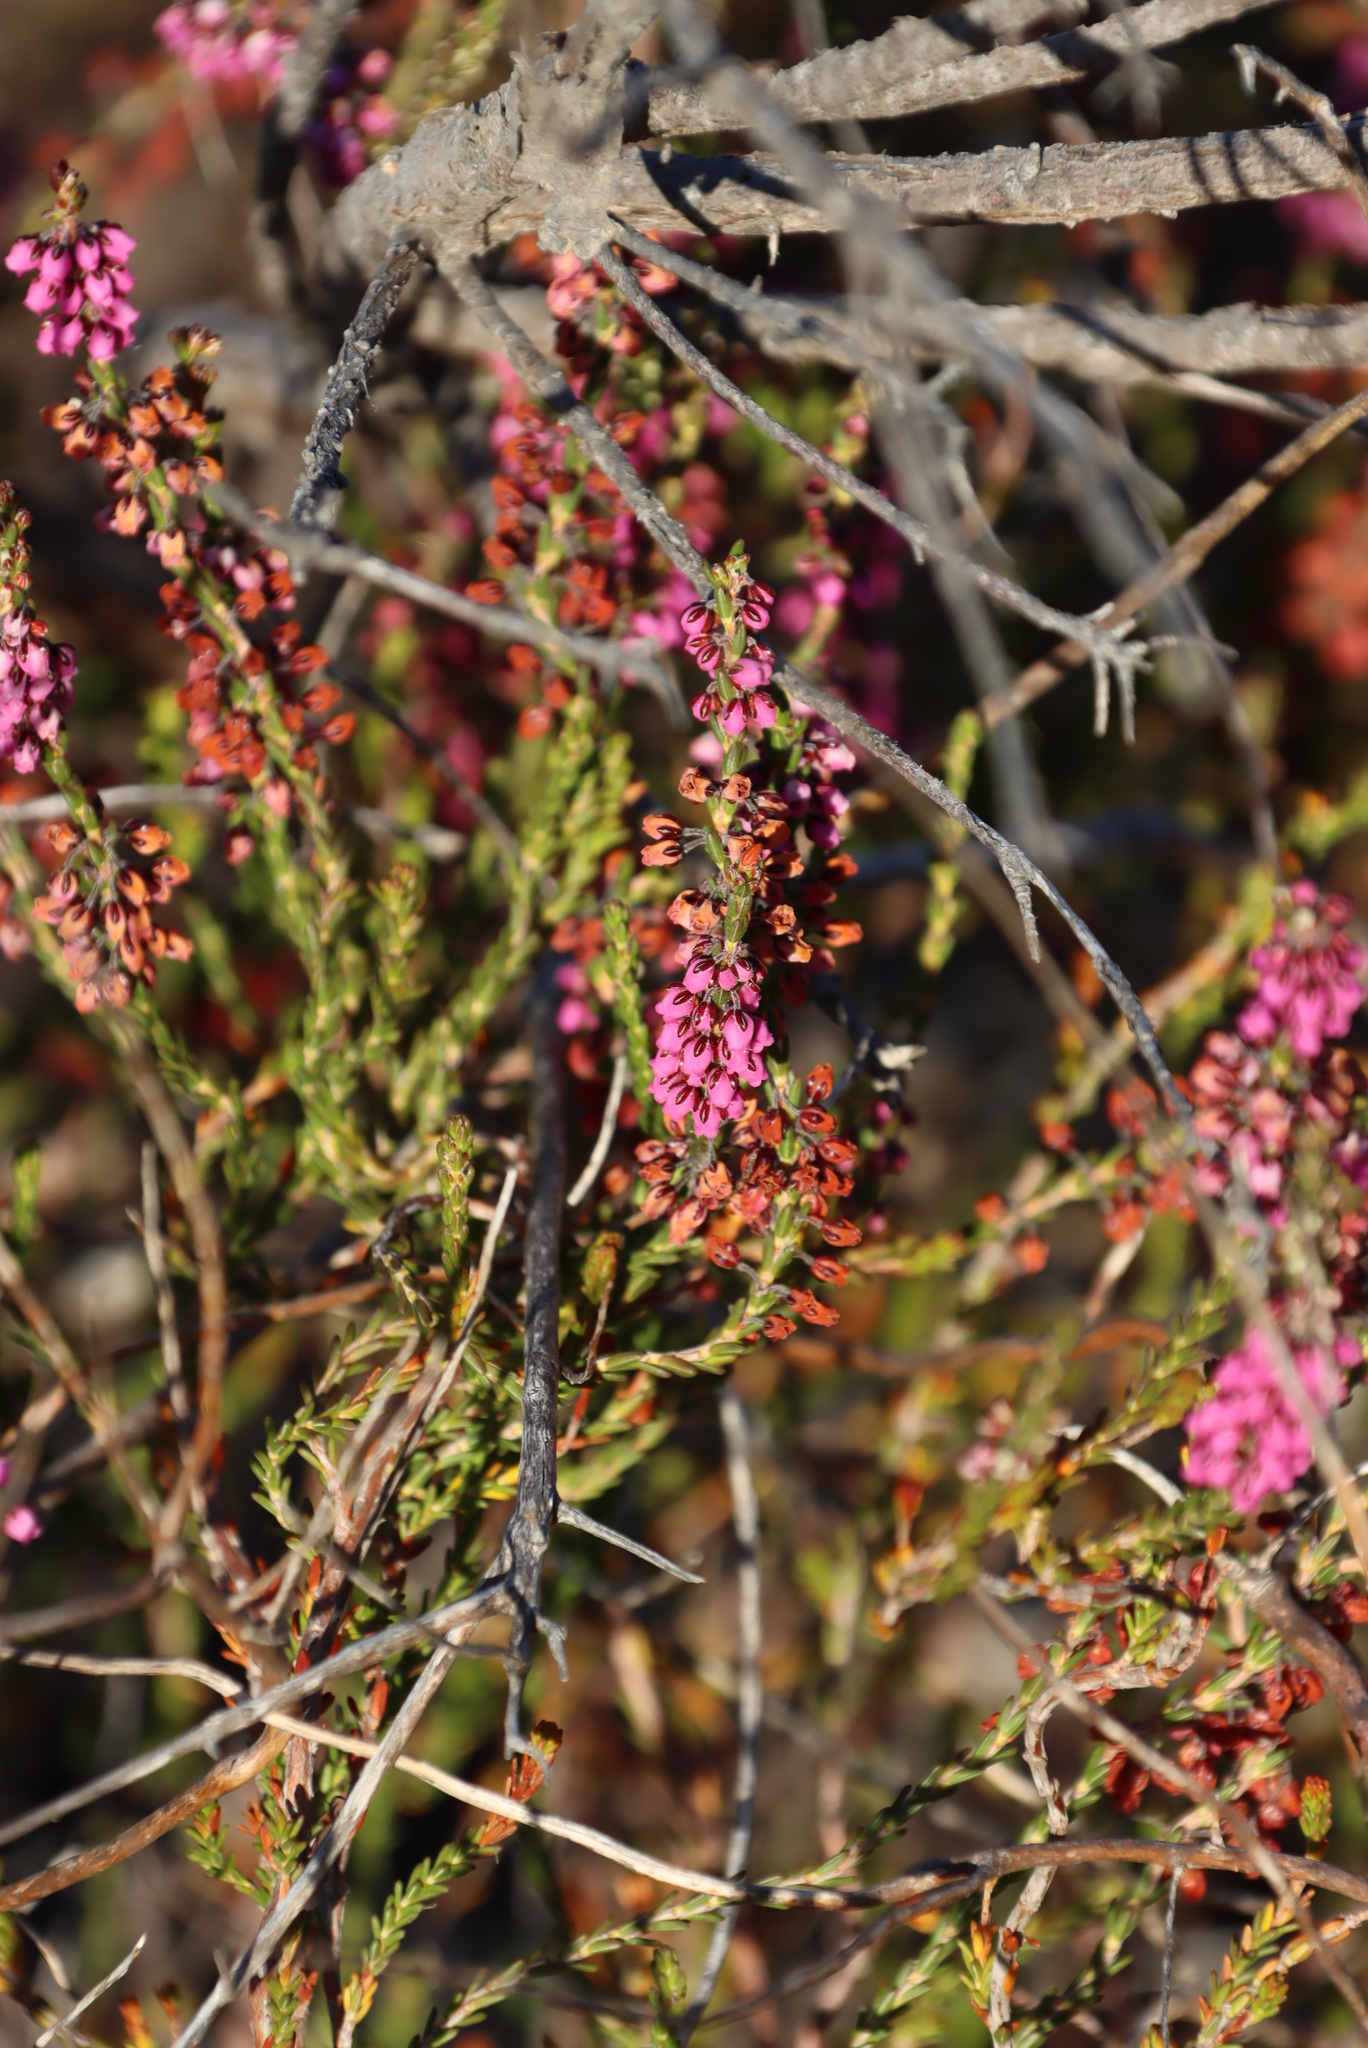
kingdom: Plantae
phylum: Tracheophyta
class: Magnoliopsida
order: Ericales
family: Ericaceae
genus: Erica
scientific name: Erica pulchella
